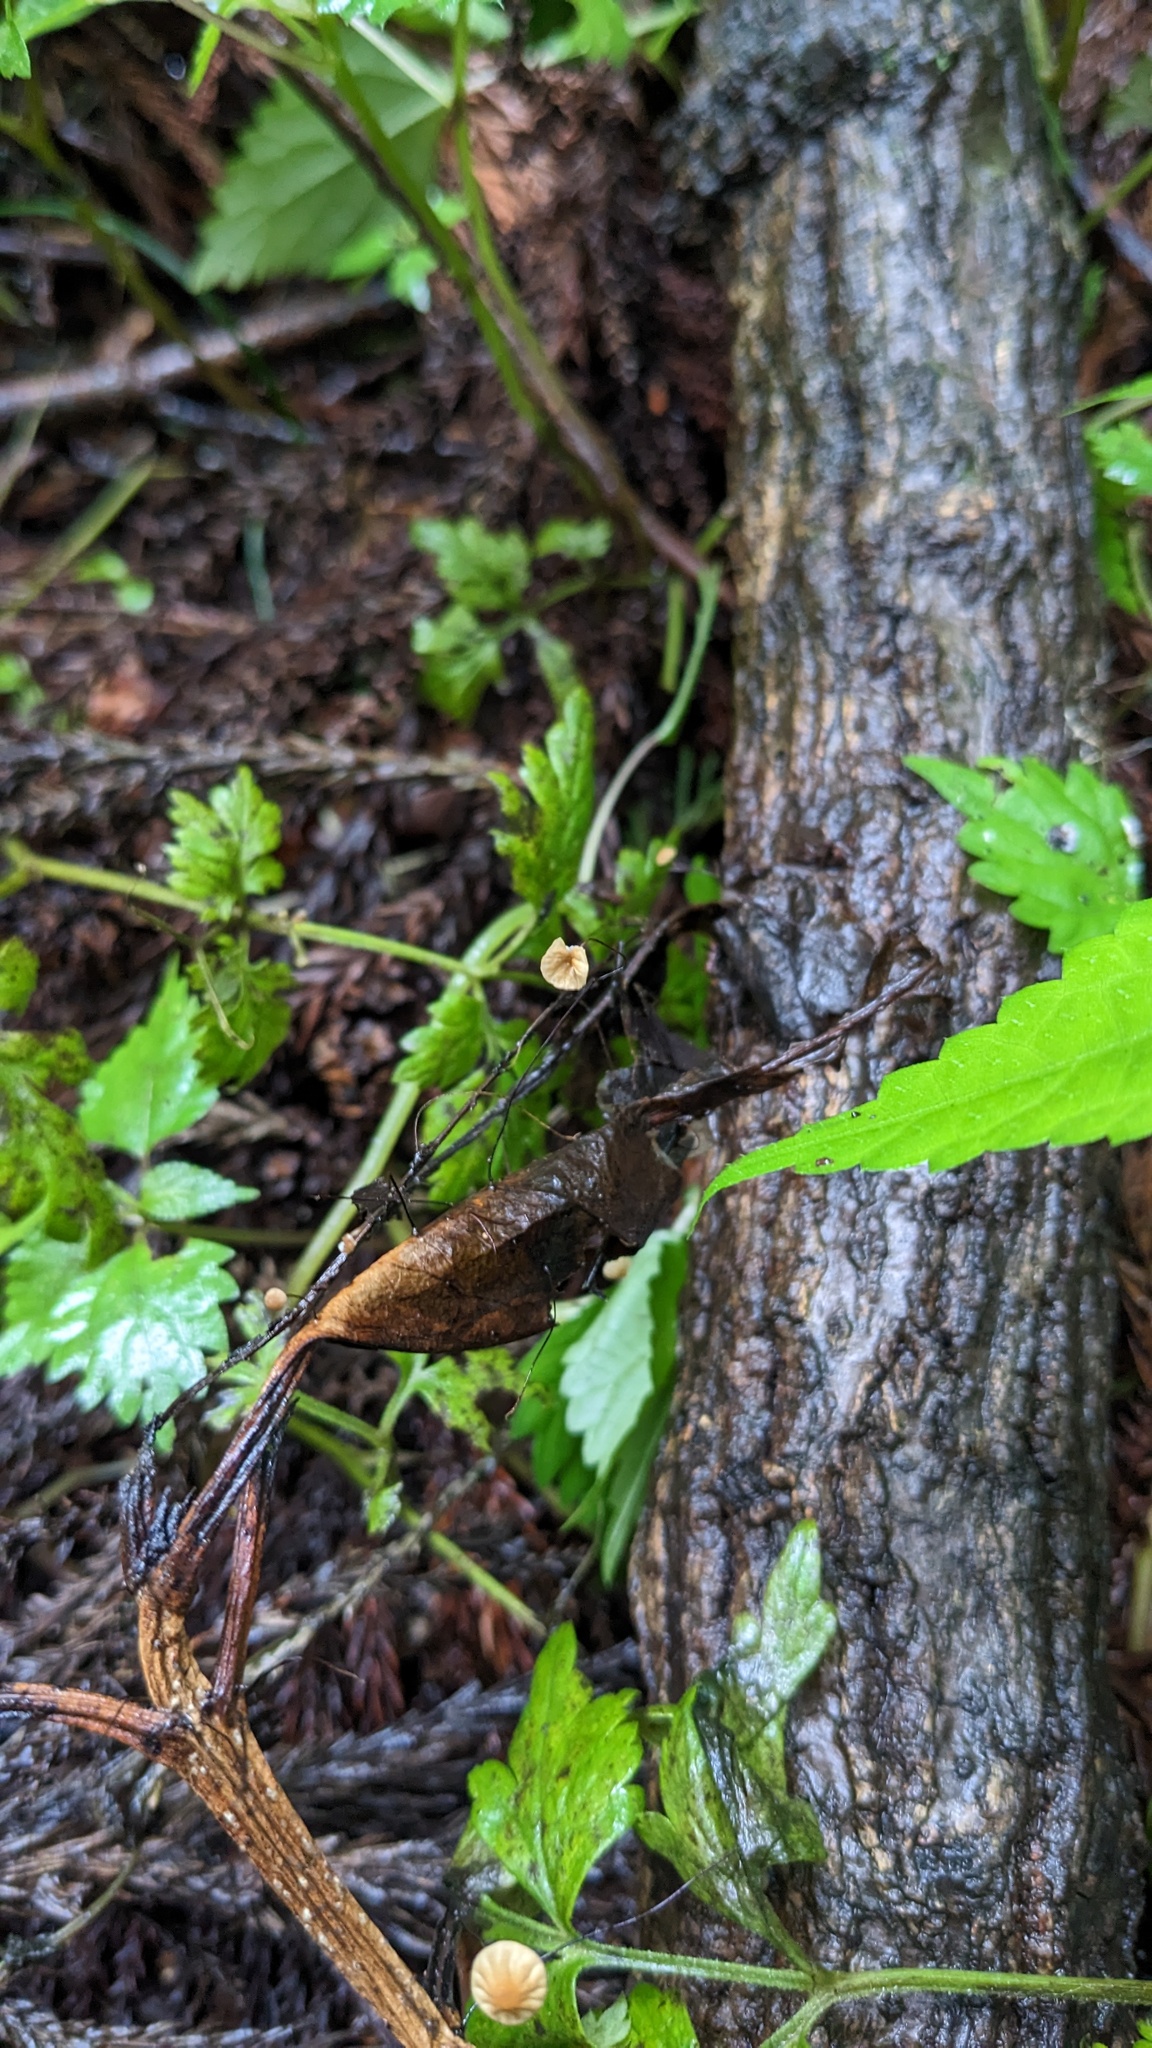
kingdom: Fungi
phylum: Basidiomycota
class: Agaricomycetes
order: Agaricales
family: Physalacriaceae
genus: Cryptomarasmius
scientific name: Cryptomarasmius aucubae
